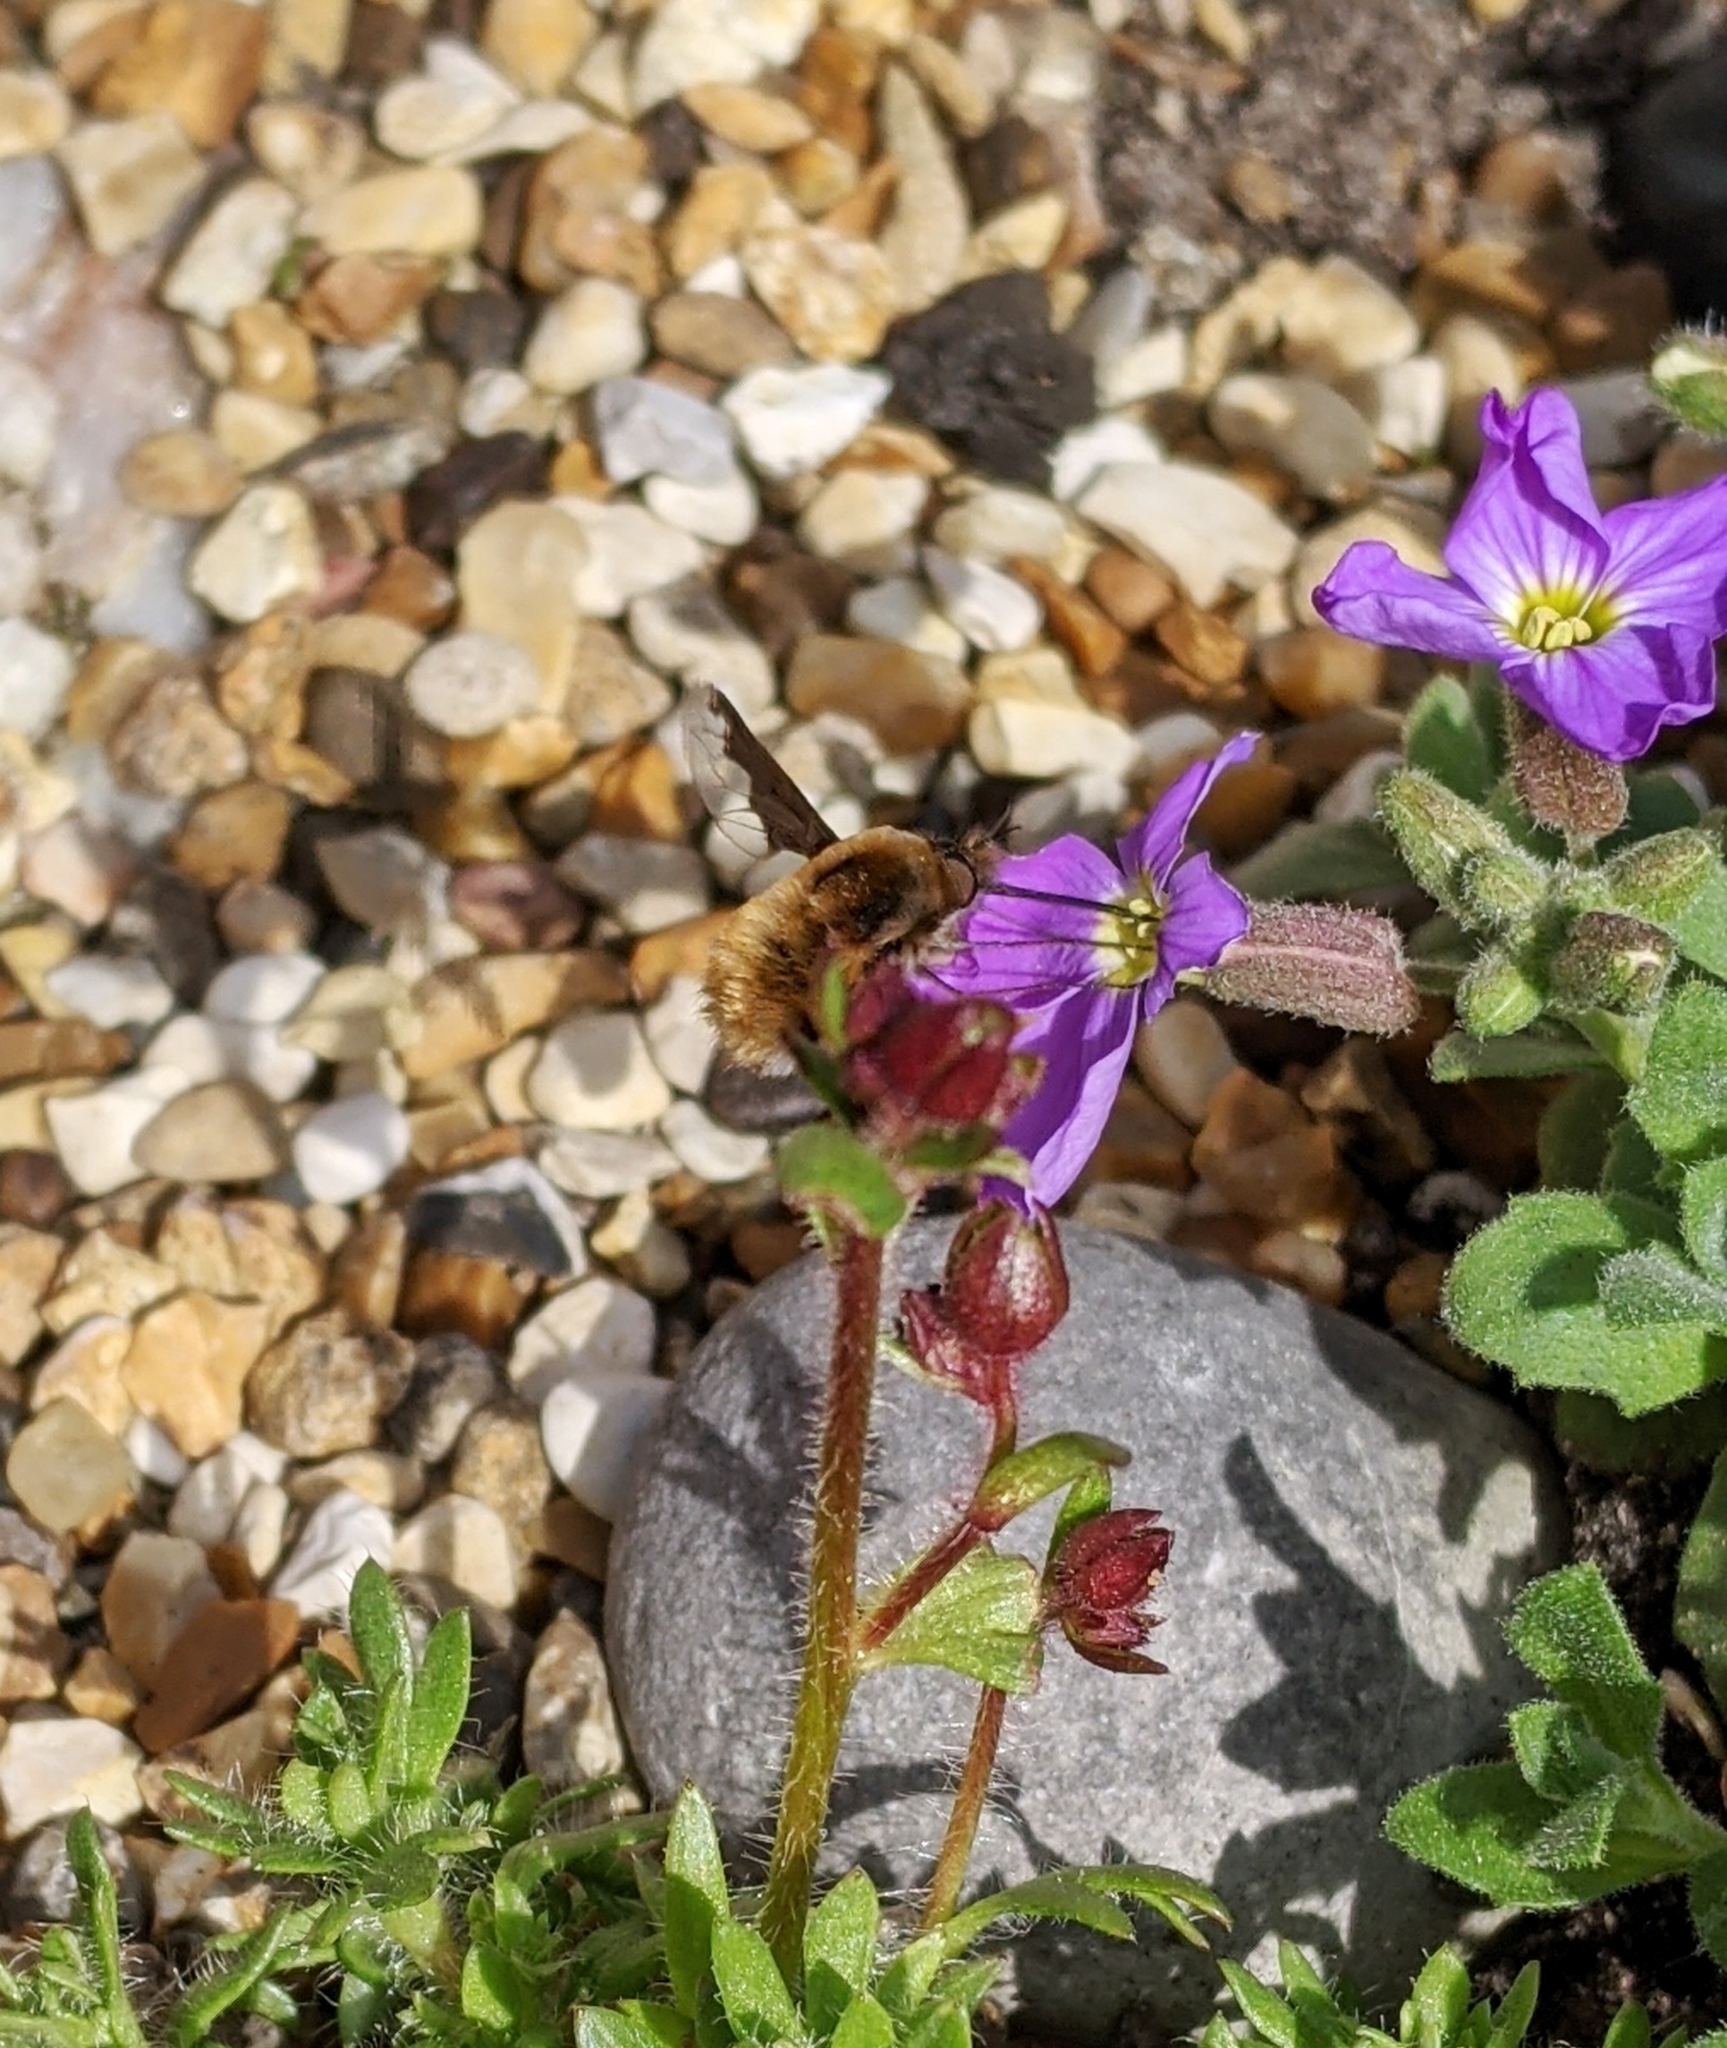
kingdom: Animalia
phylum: Arthropoda
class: Insecta
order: Diptera
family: Bombyliidae
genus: Bombylius
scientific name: Bombylius major
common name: Bee fly
